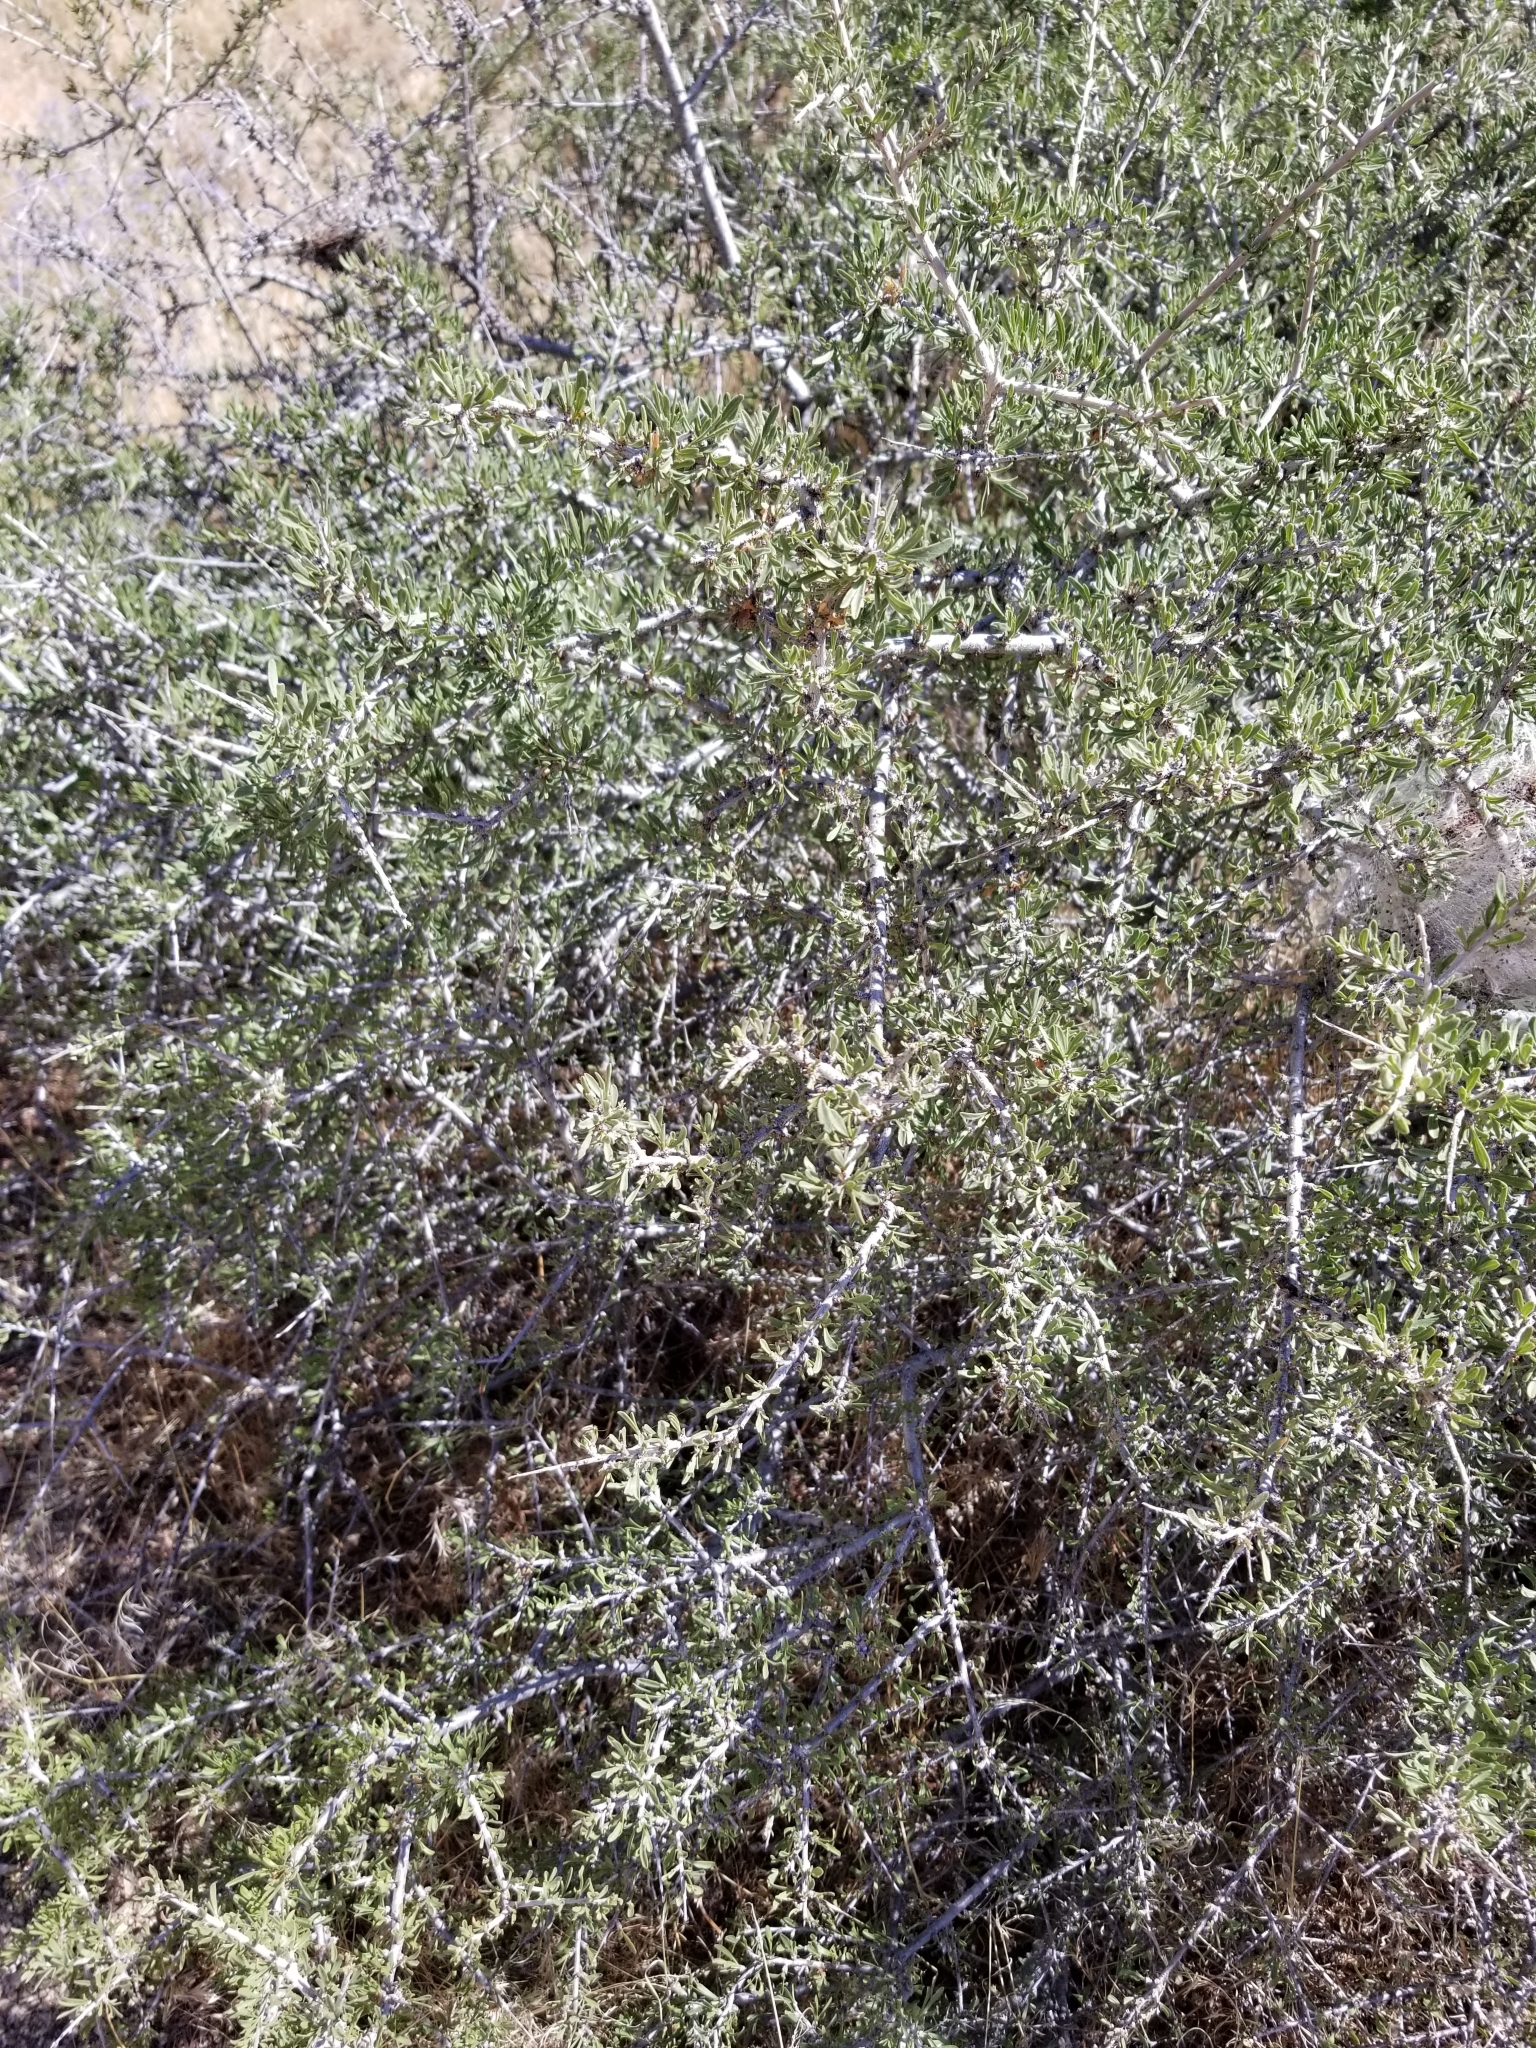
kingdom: Plantae
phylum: Tracheophyta
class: Magnoliopsida
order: Rosales
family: Rosaceae
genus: Prunus
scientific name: Prunus fasciculata
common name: Desert almond
